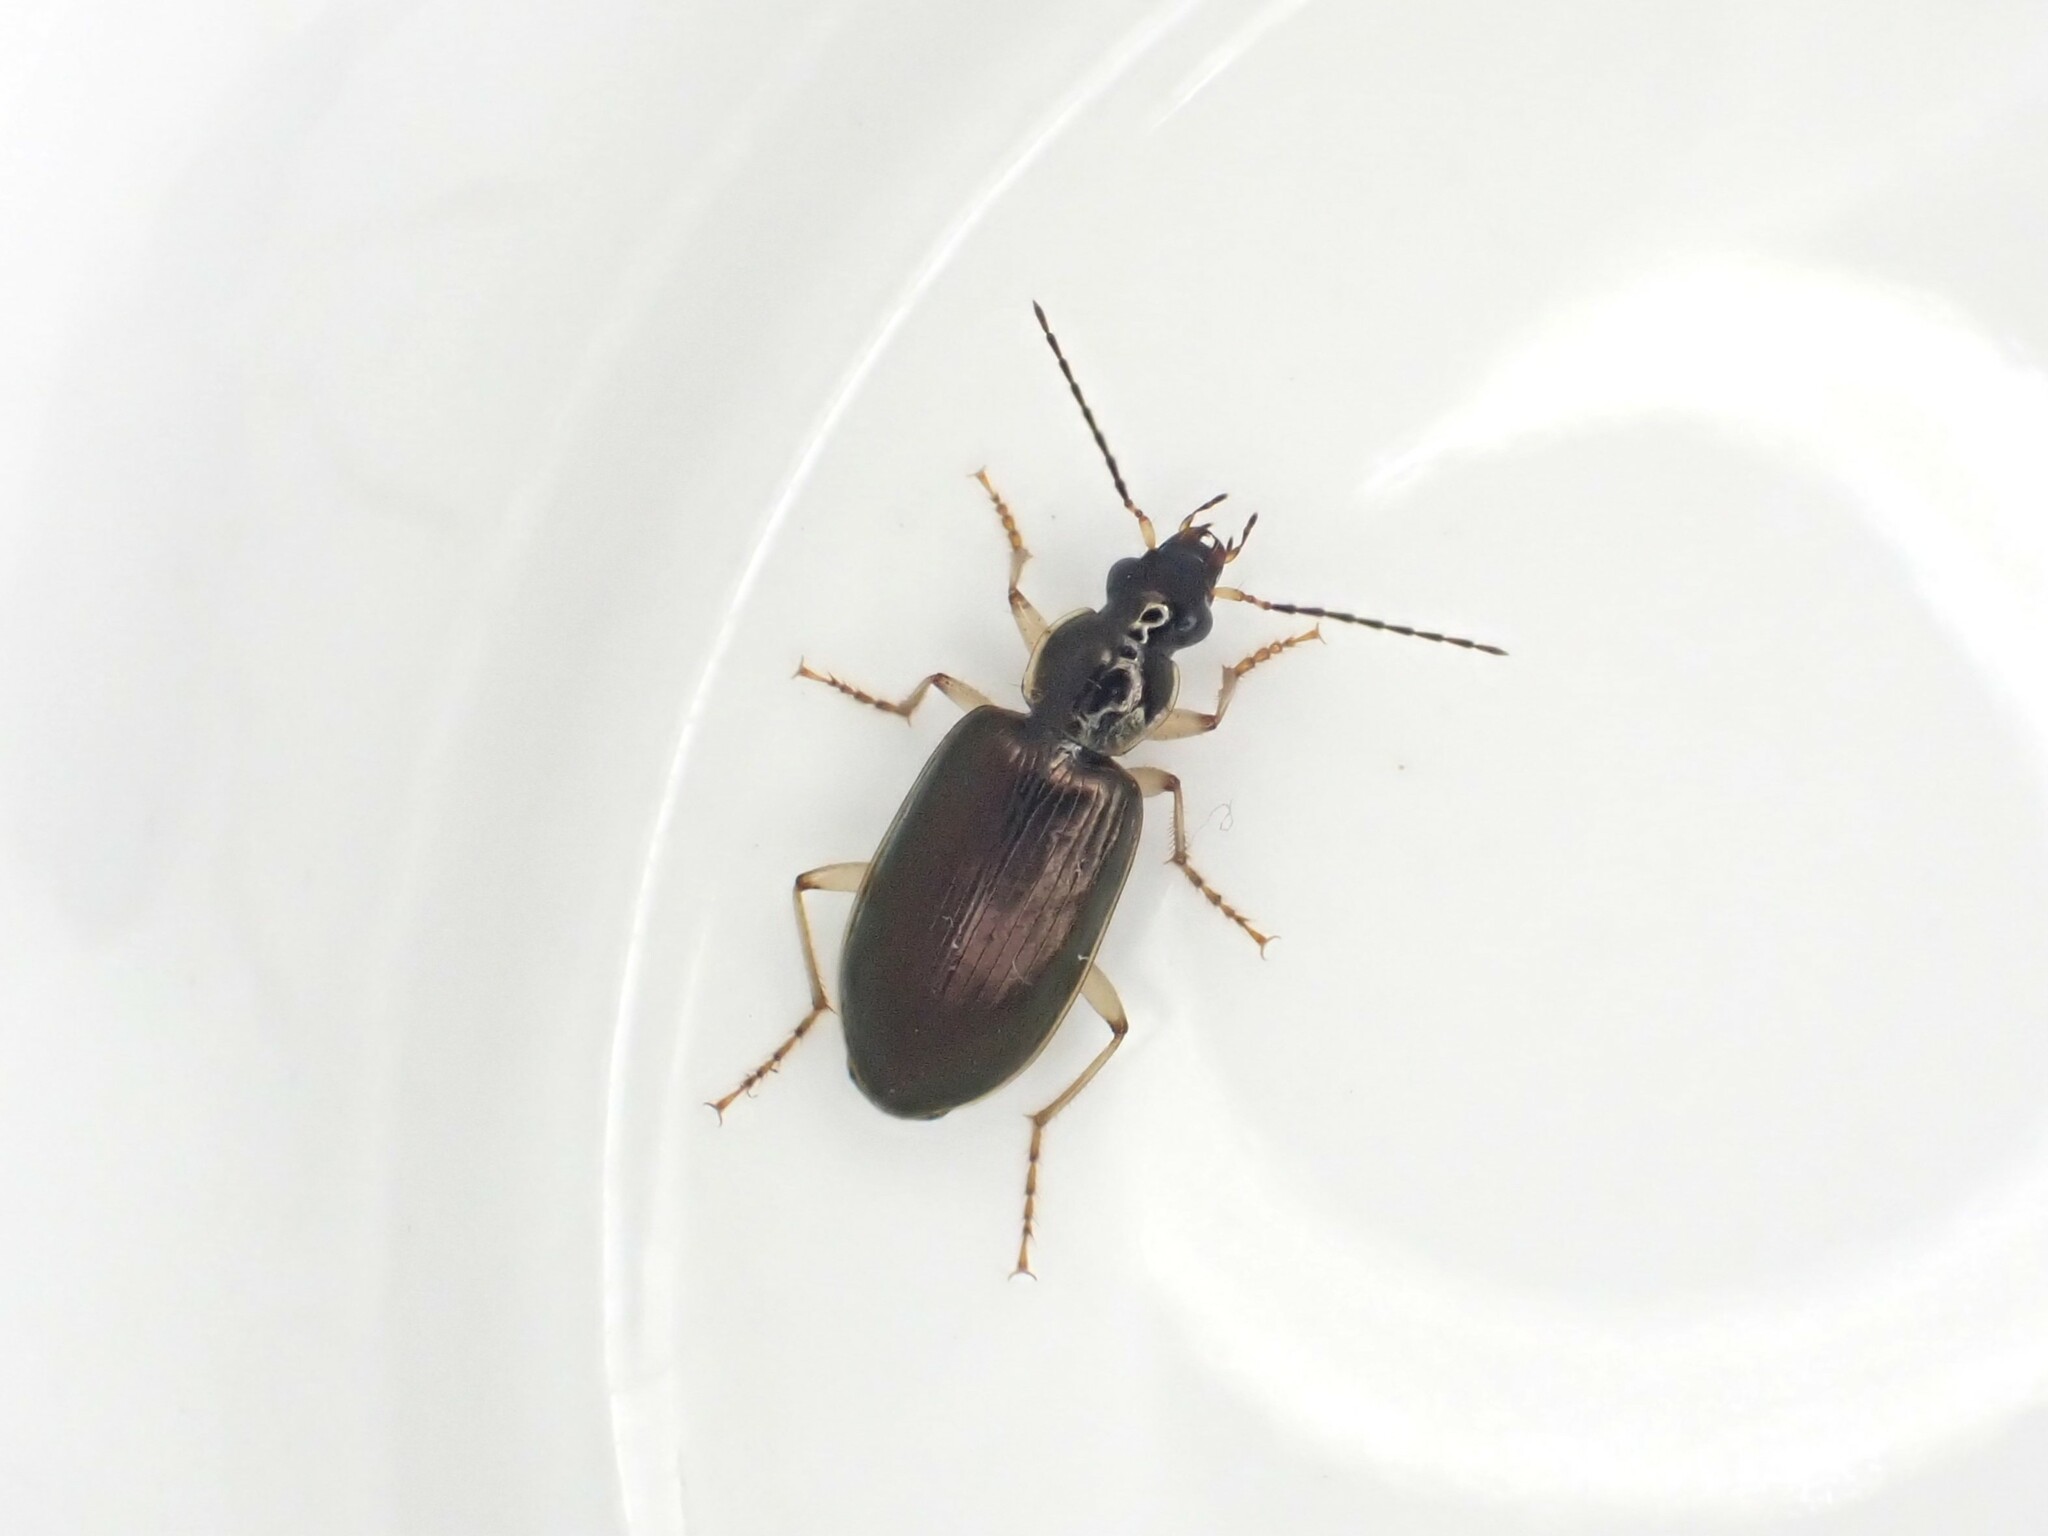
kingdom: Animalia
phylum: Arthropoda
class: Insecta
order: Coleoptera
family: Carabidae
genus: Notagonum
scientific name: Notagonum submetallicum
